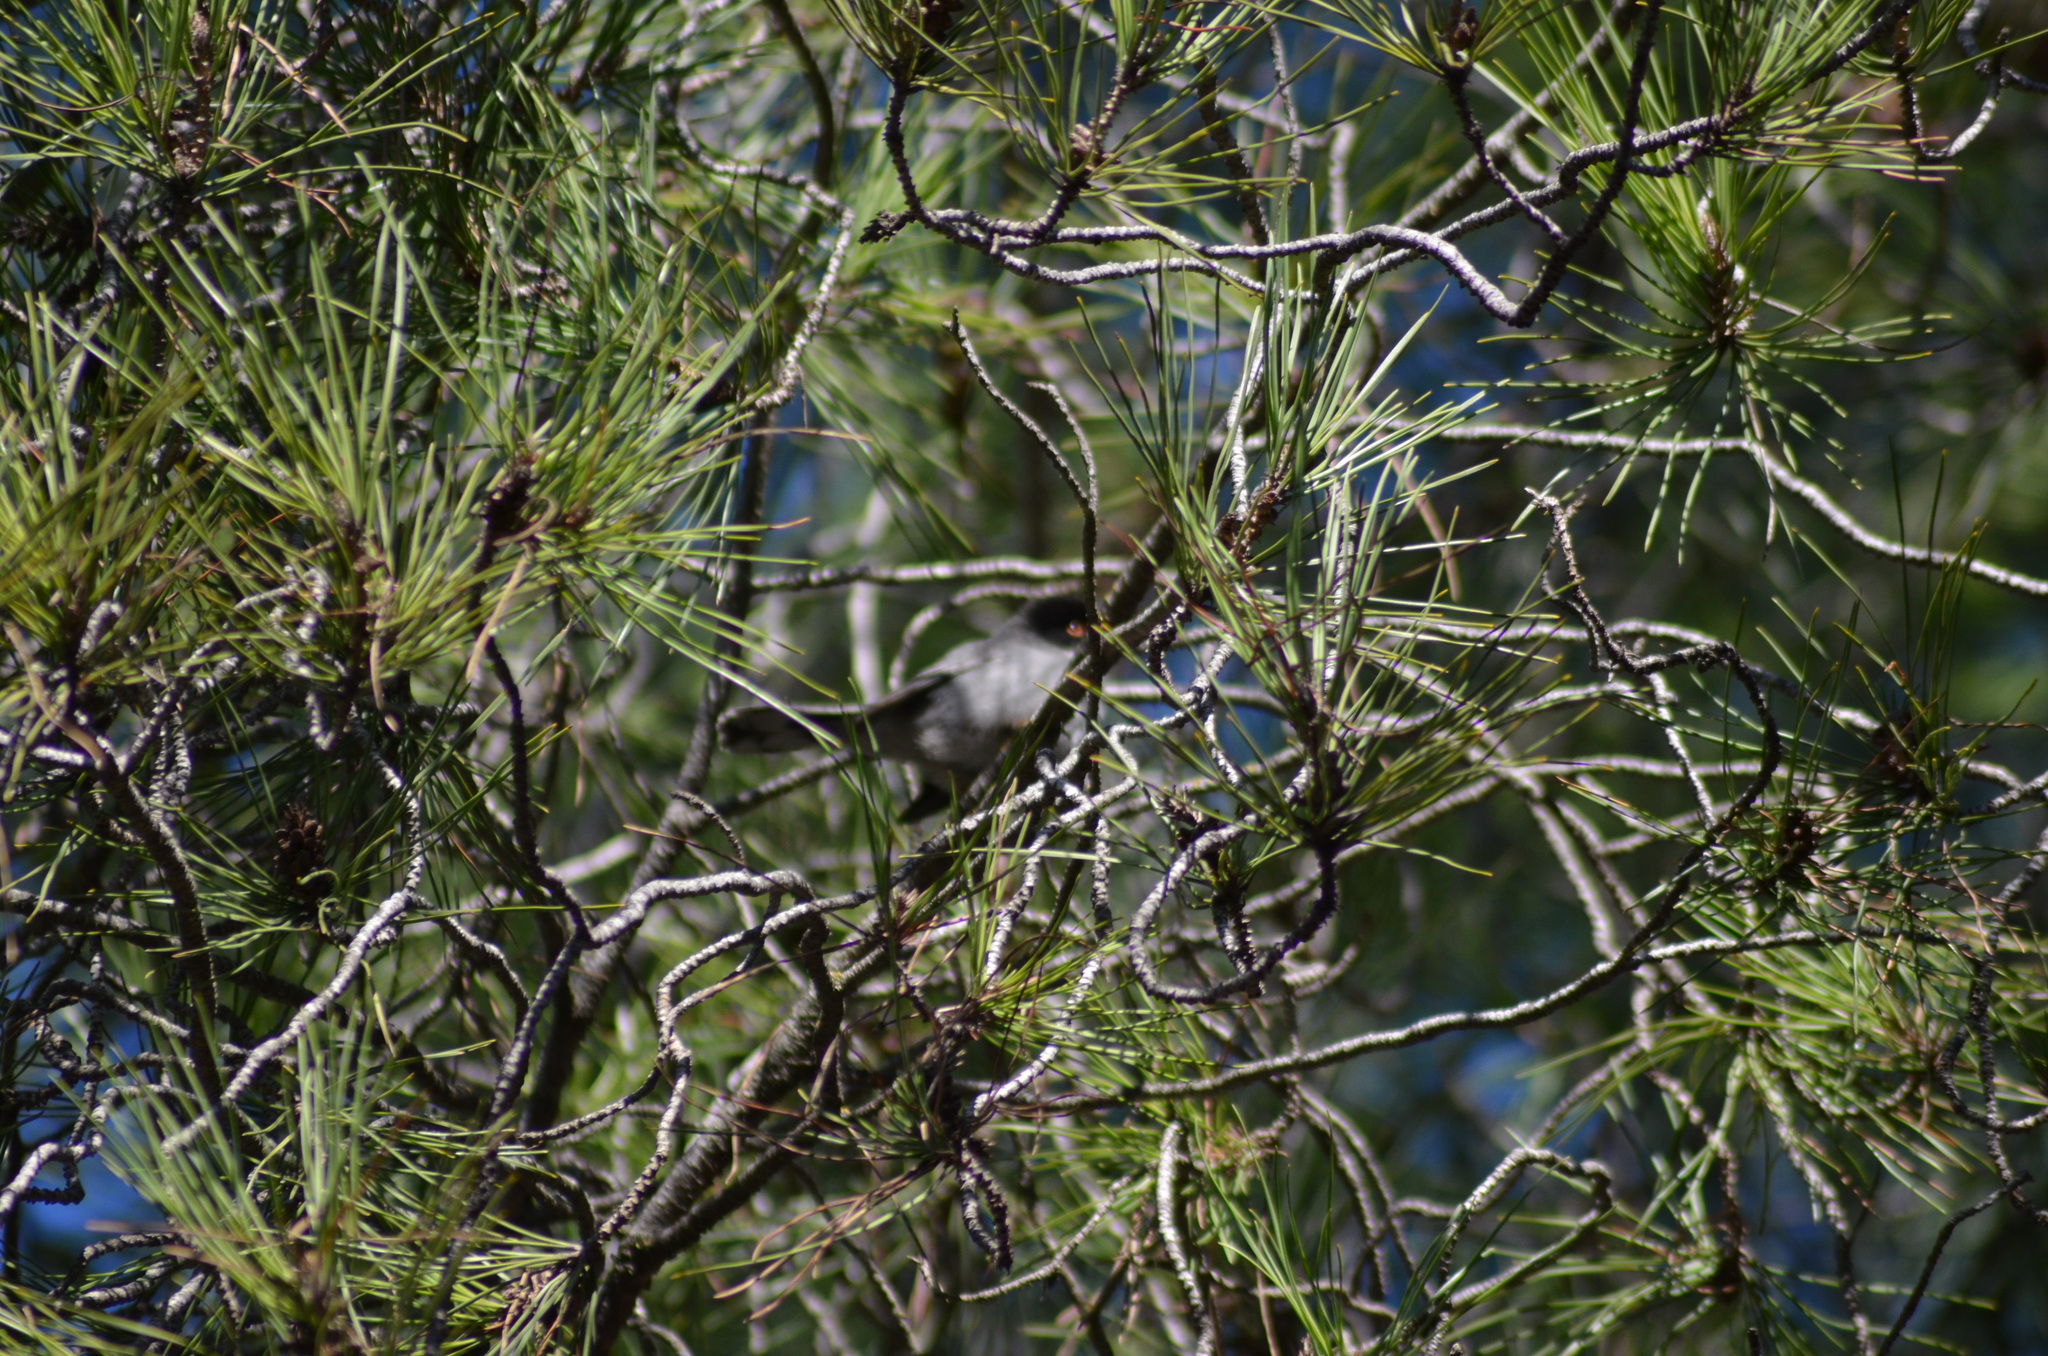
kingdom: Animalia
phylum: Chordata
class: Aves
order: Passeriformes
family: Sylviidae
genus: Curruca
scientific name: Curruca melanocephala
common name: Sardinian warbler
